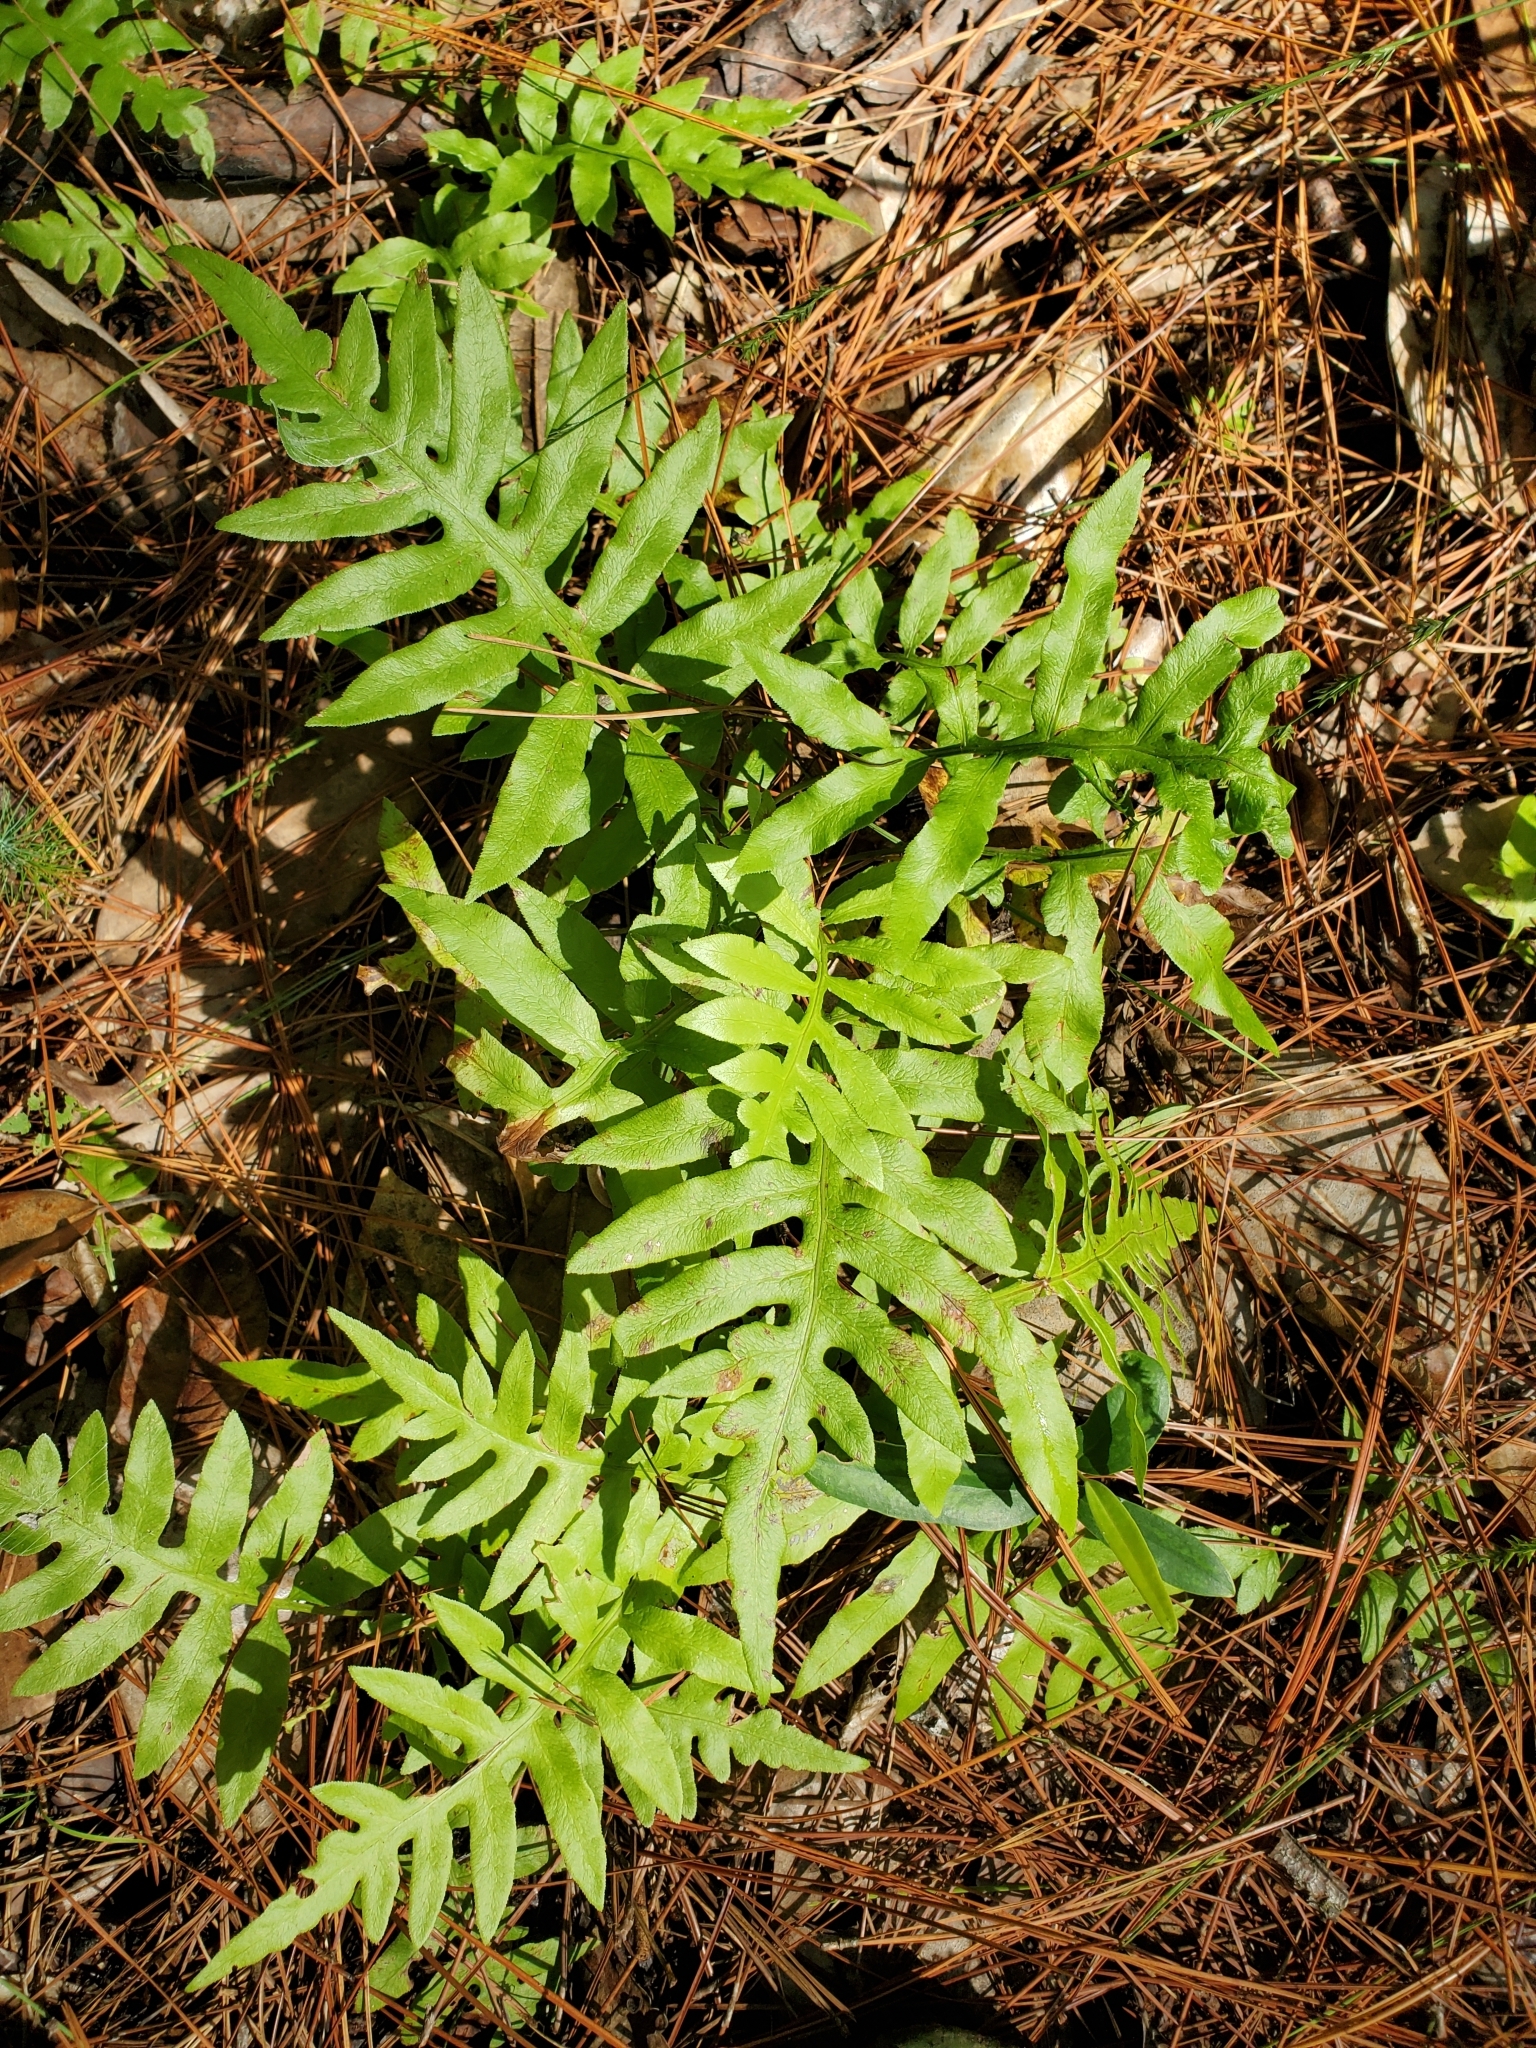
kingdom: Plantae
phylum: Tracheophyta
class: Polypodiopsida
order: Polypodiales
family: Blechnaceae
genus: Lorinseria
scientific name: Lorinseria areolata
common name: Dwarf chain fern
